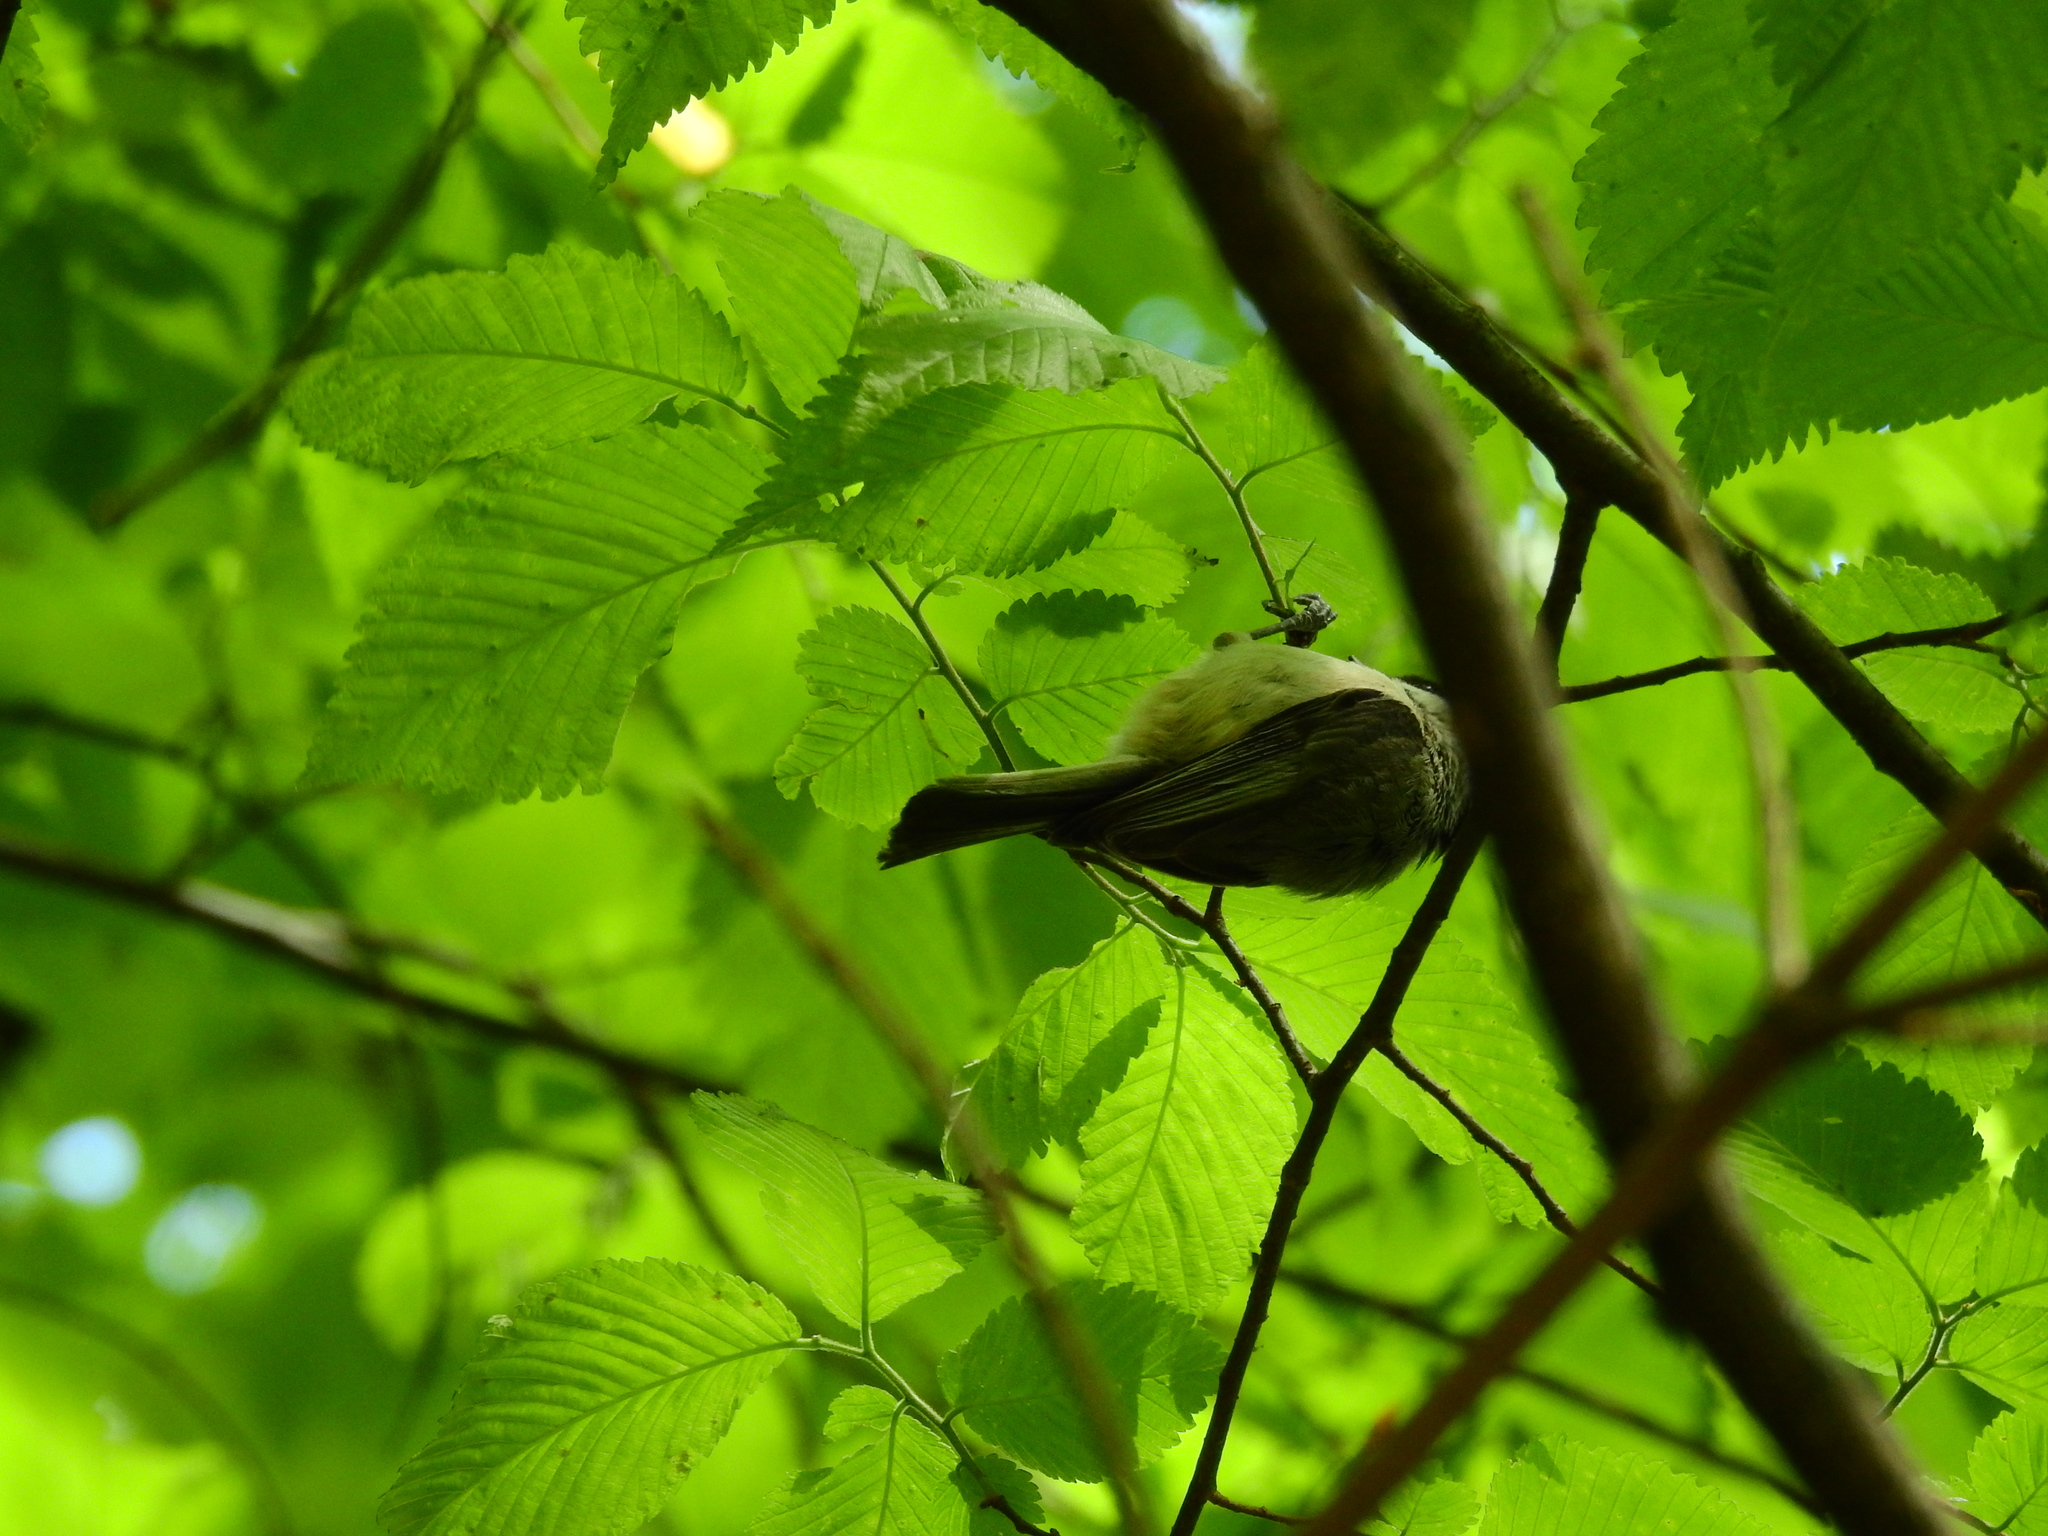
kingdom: Animalia
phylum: Chordata
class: Aves
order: Passeriformes
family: Paridae
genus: Poecile
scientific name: Poecile carolinensis
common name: Carolina chickadee
